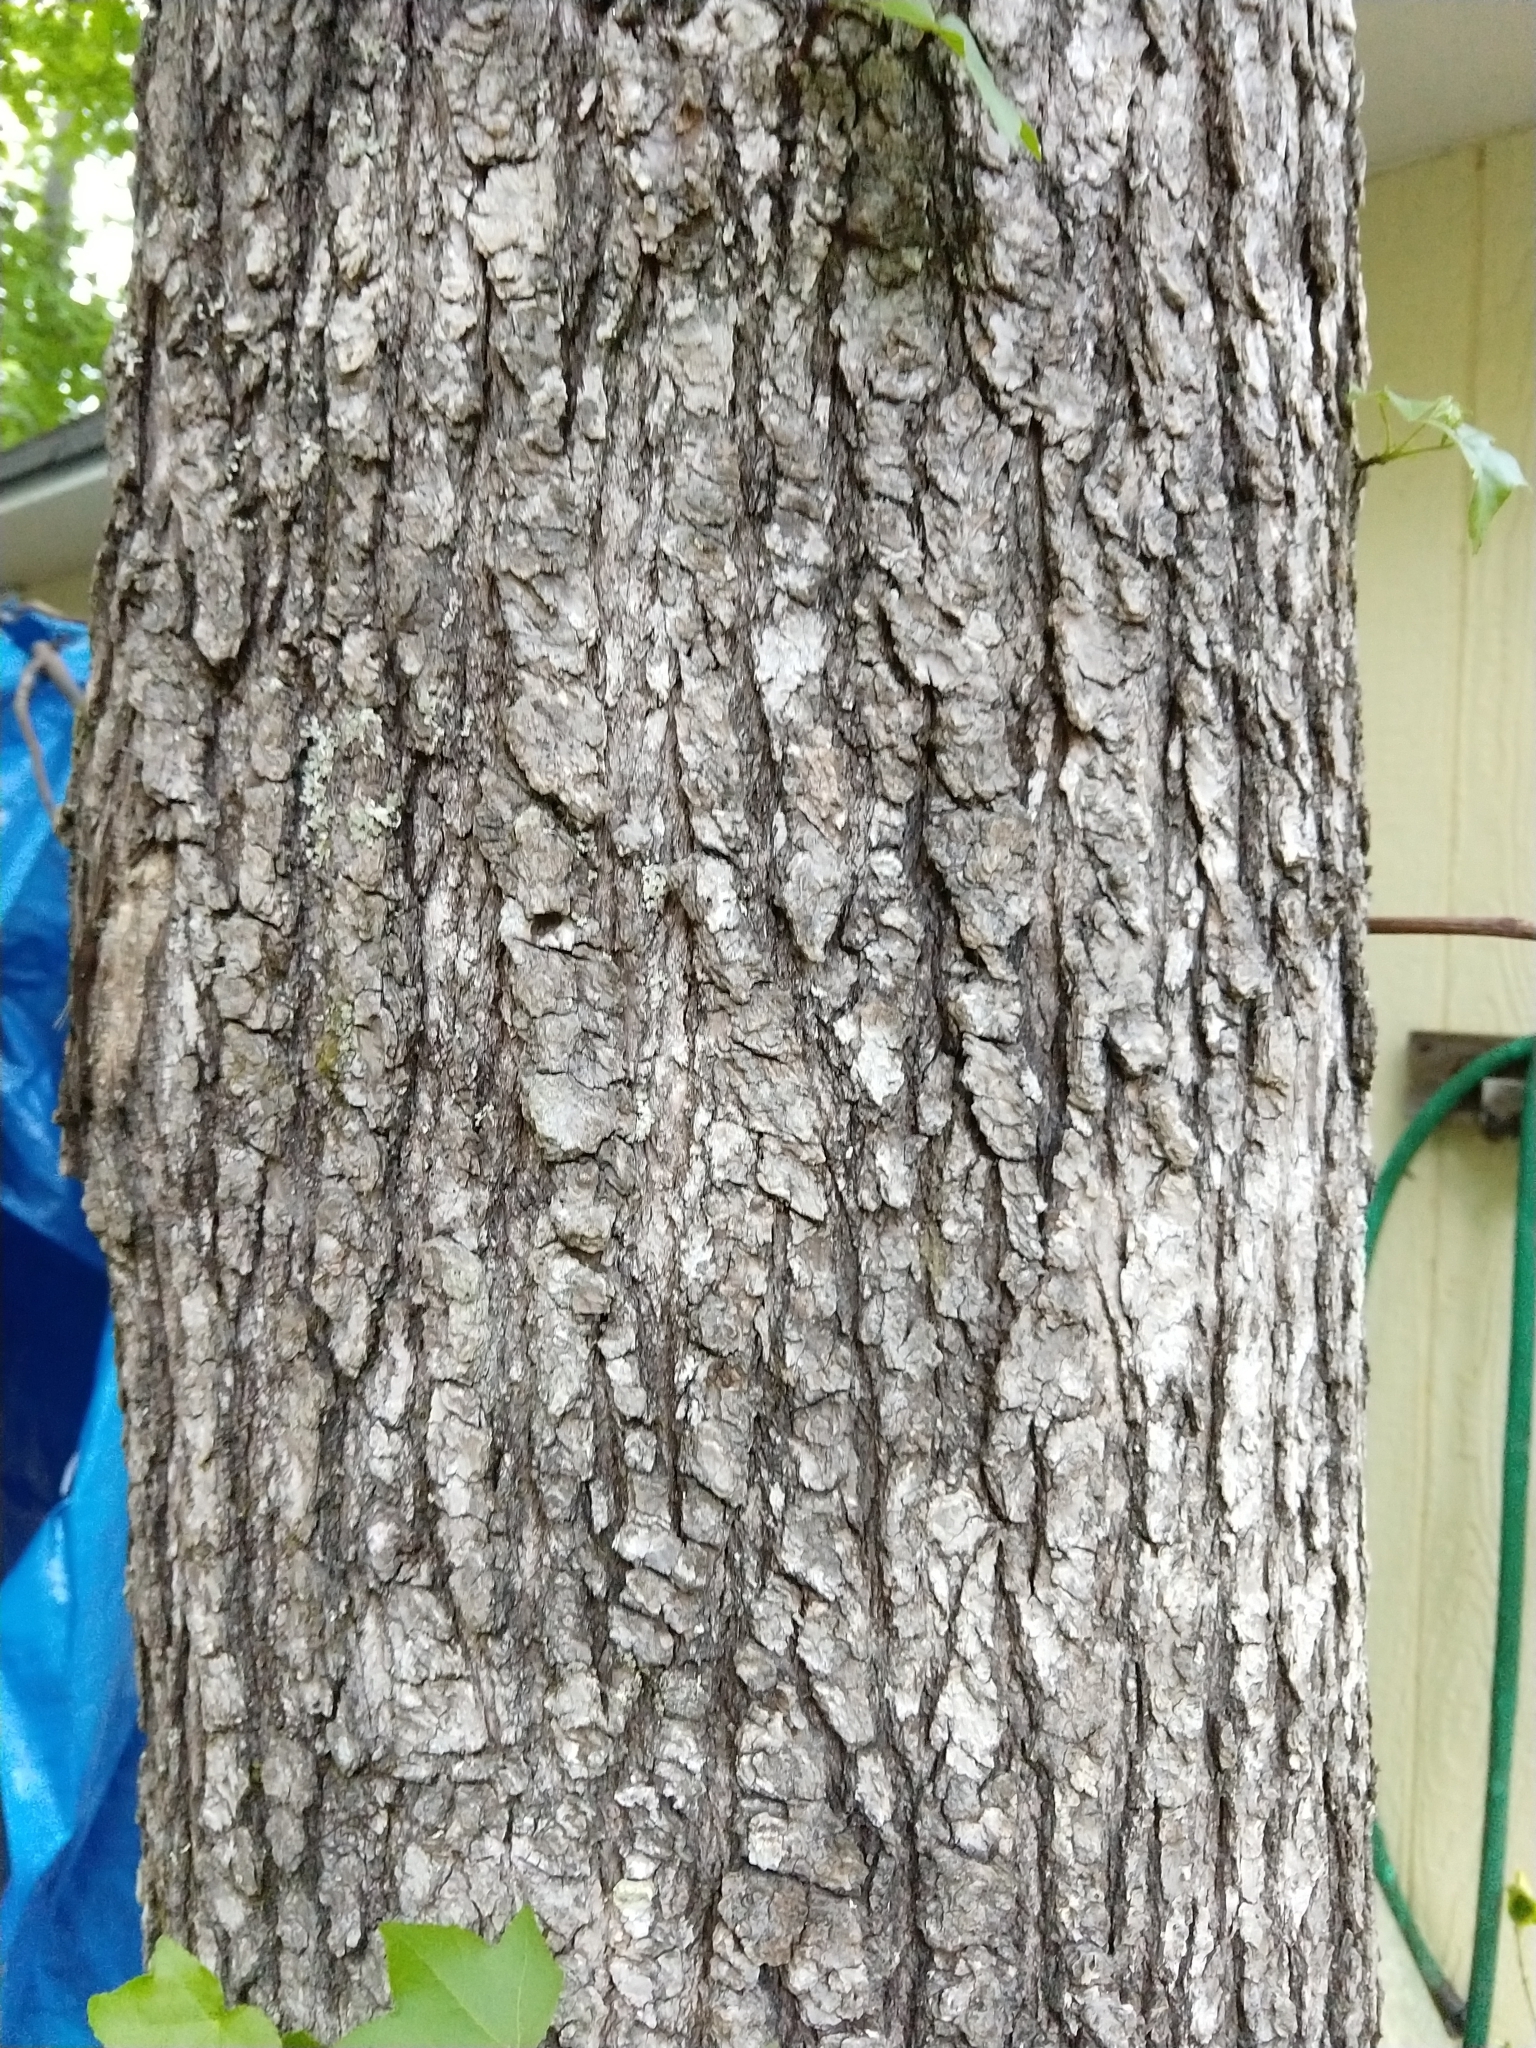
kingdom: Plantae
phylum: Tracheophyta
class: Magnoliopsida
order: Saxifragales
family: Altingiaceae
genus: Liquidambar
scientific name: Liquidambar styraciflua
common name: Sweet gum
